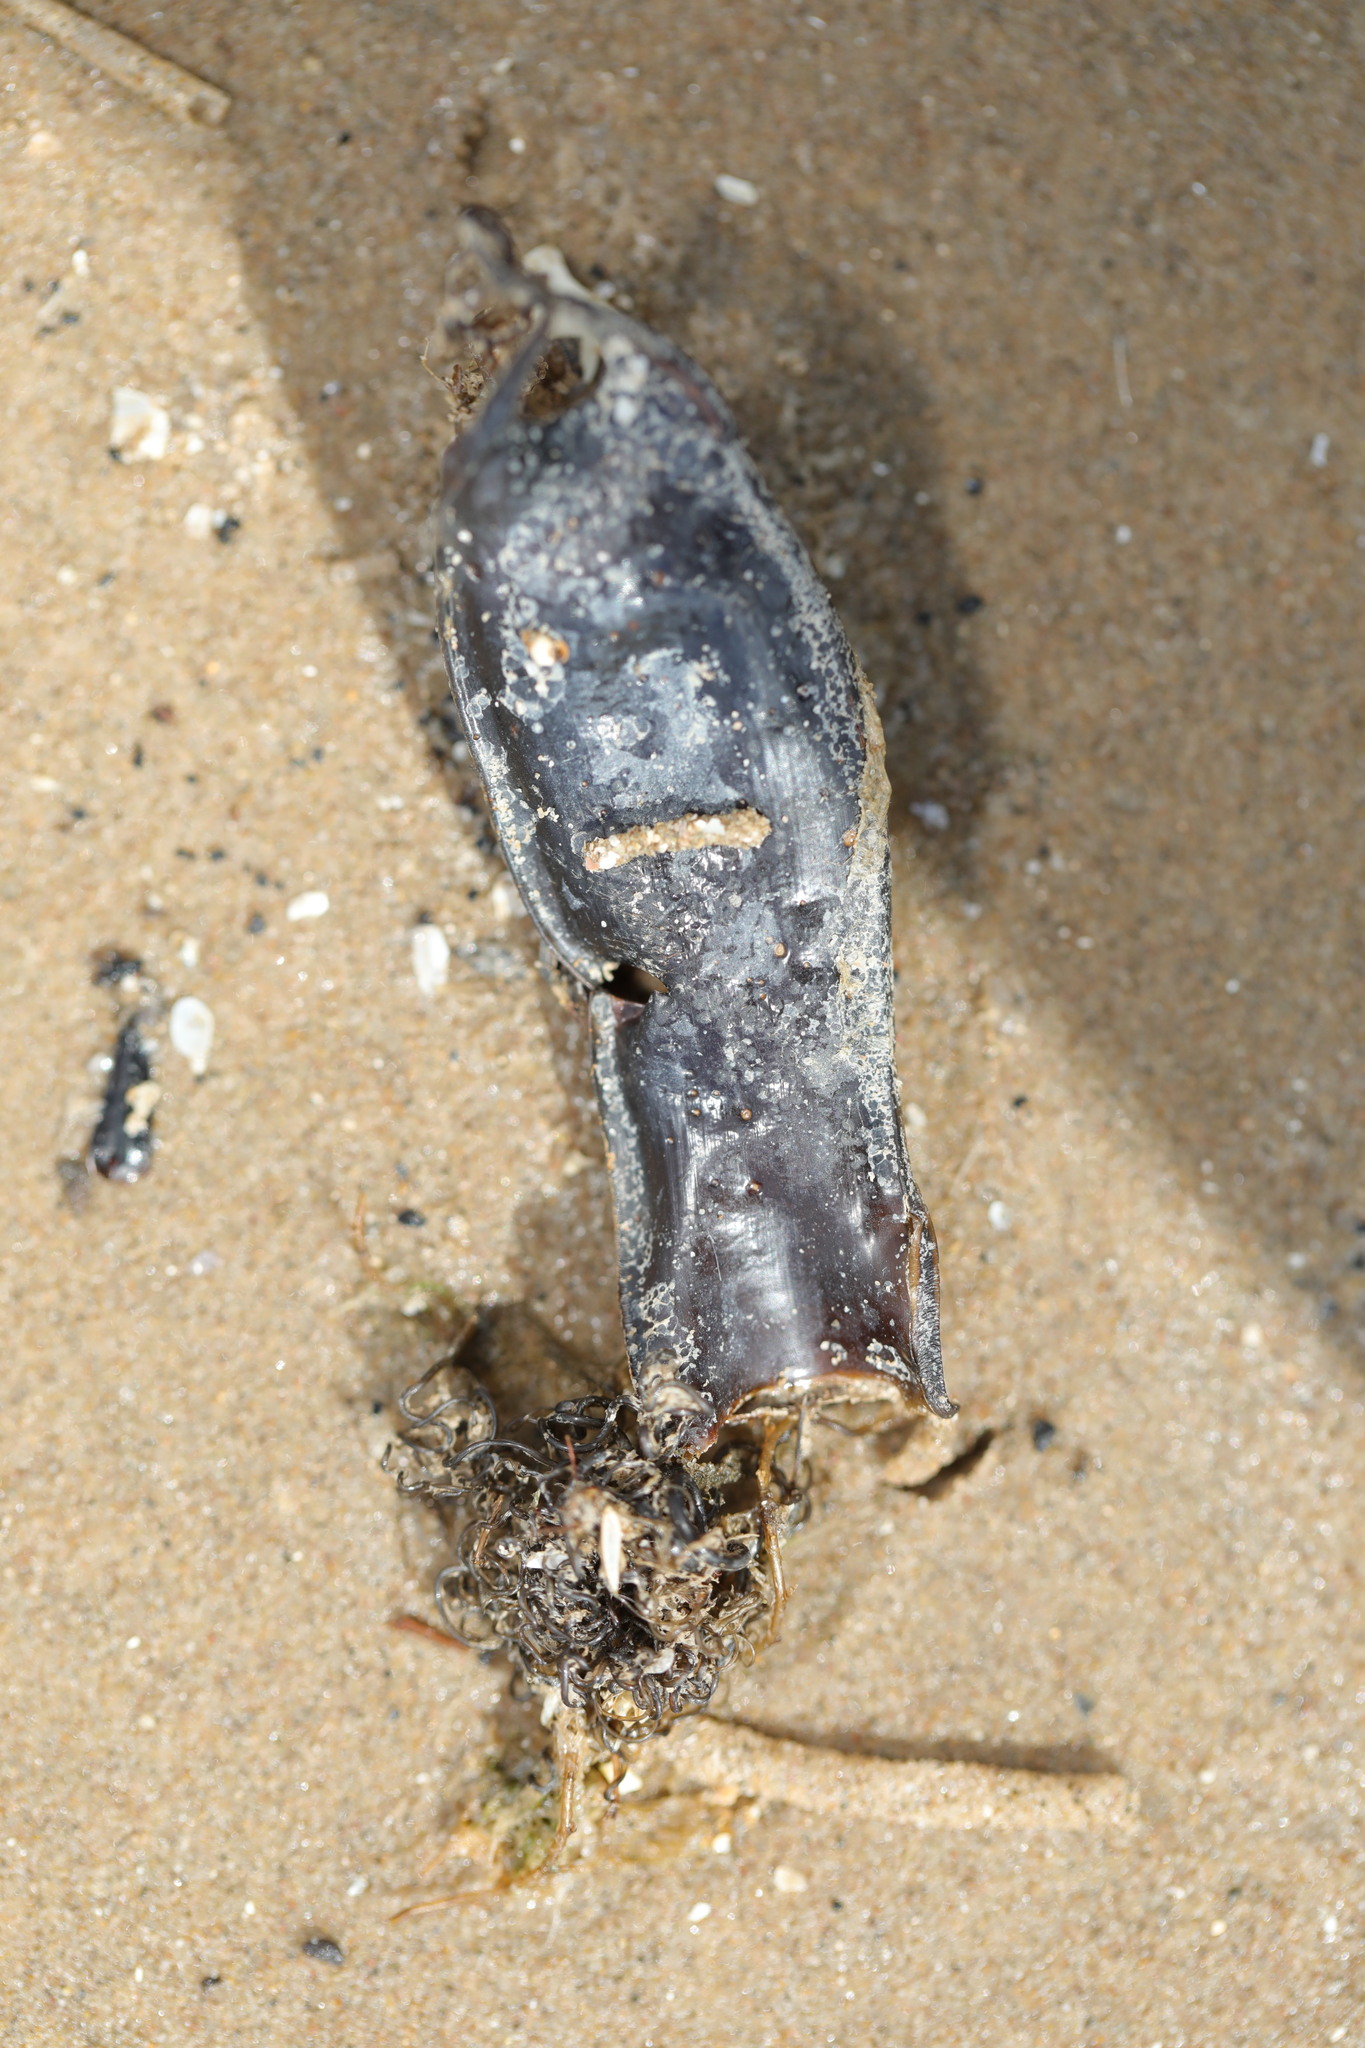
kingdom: Animalia
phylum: Chordata
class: Elasmobranchii
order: Carcharhiniformes
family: Scyliorhinidae
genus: Scyliorhinus
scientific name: Scyliorhinus canicula
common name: Lesser spotted dogfish
